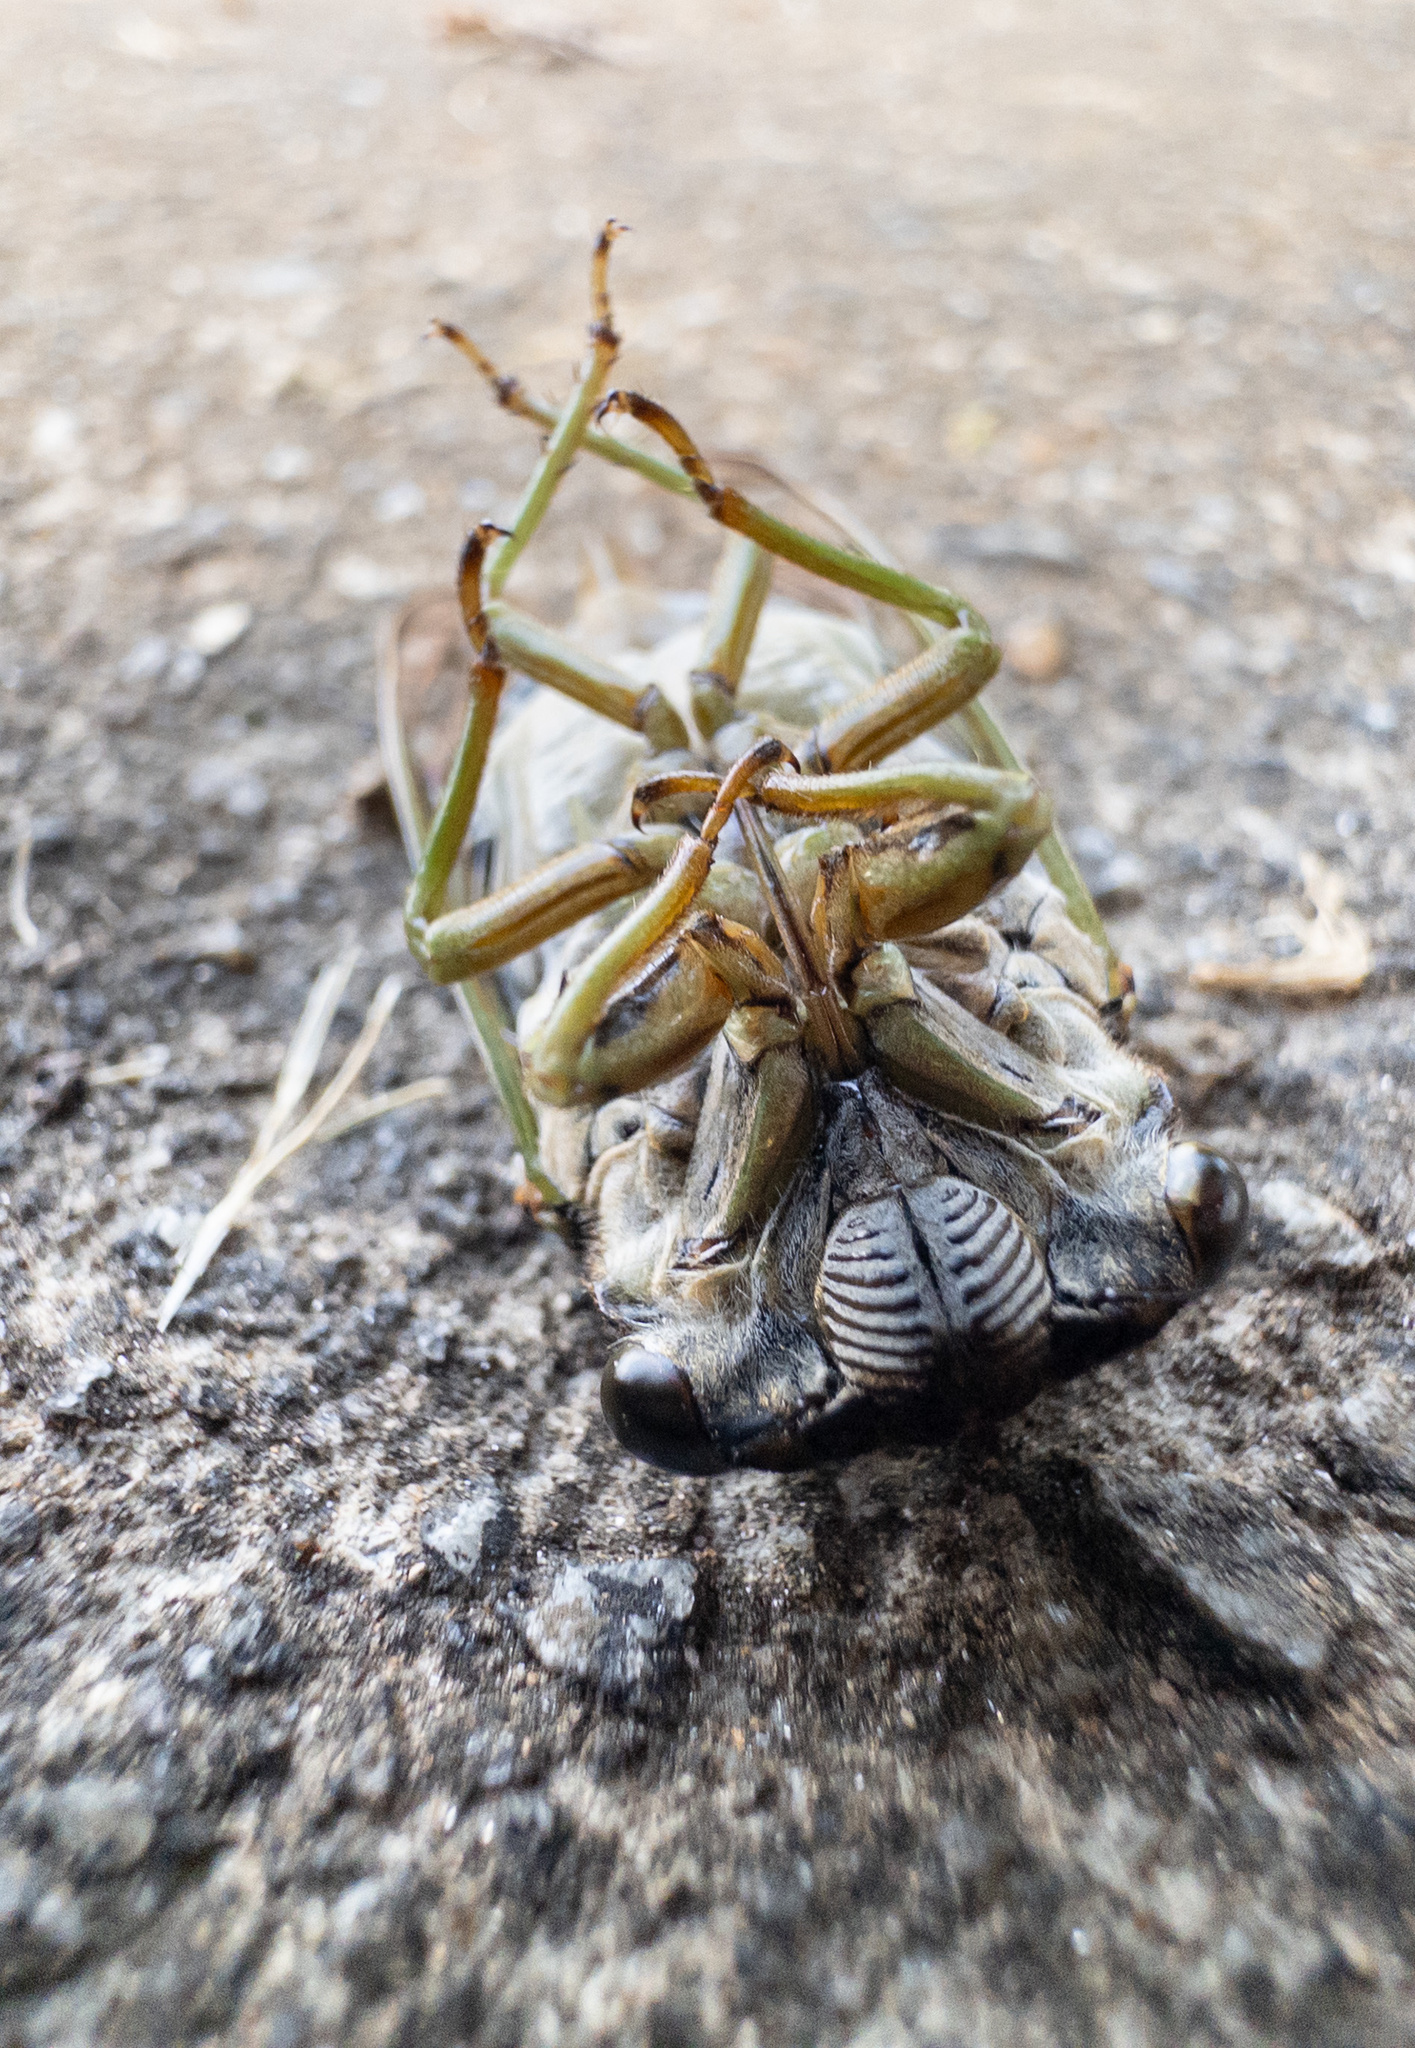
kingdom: Animalia
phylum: Arthropoda
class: Insecta
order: Hemiptera
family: Cicadidae
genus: Neotibicen
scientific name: Neotibicen tibicen
